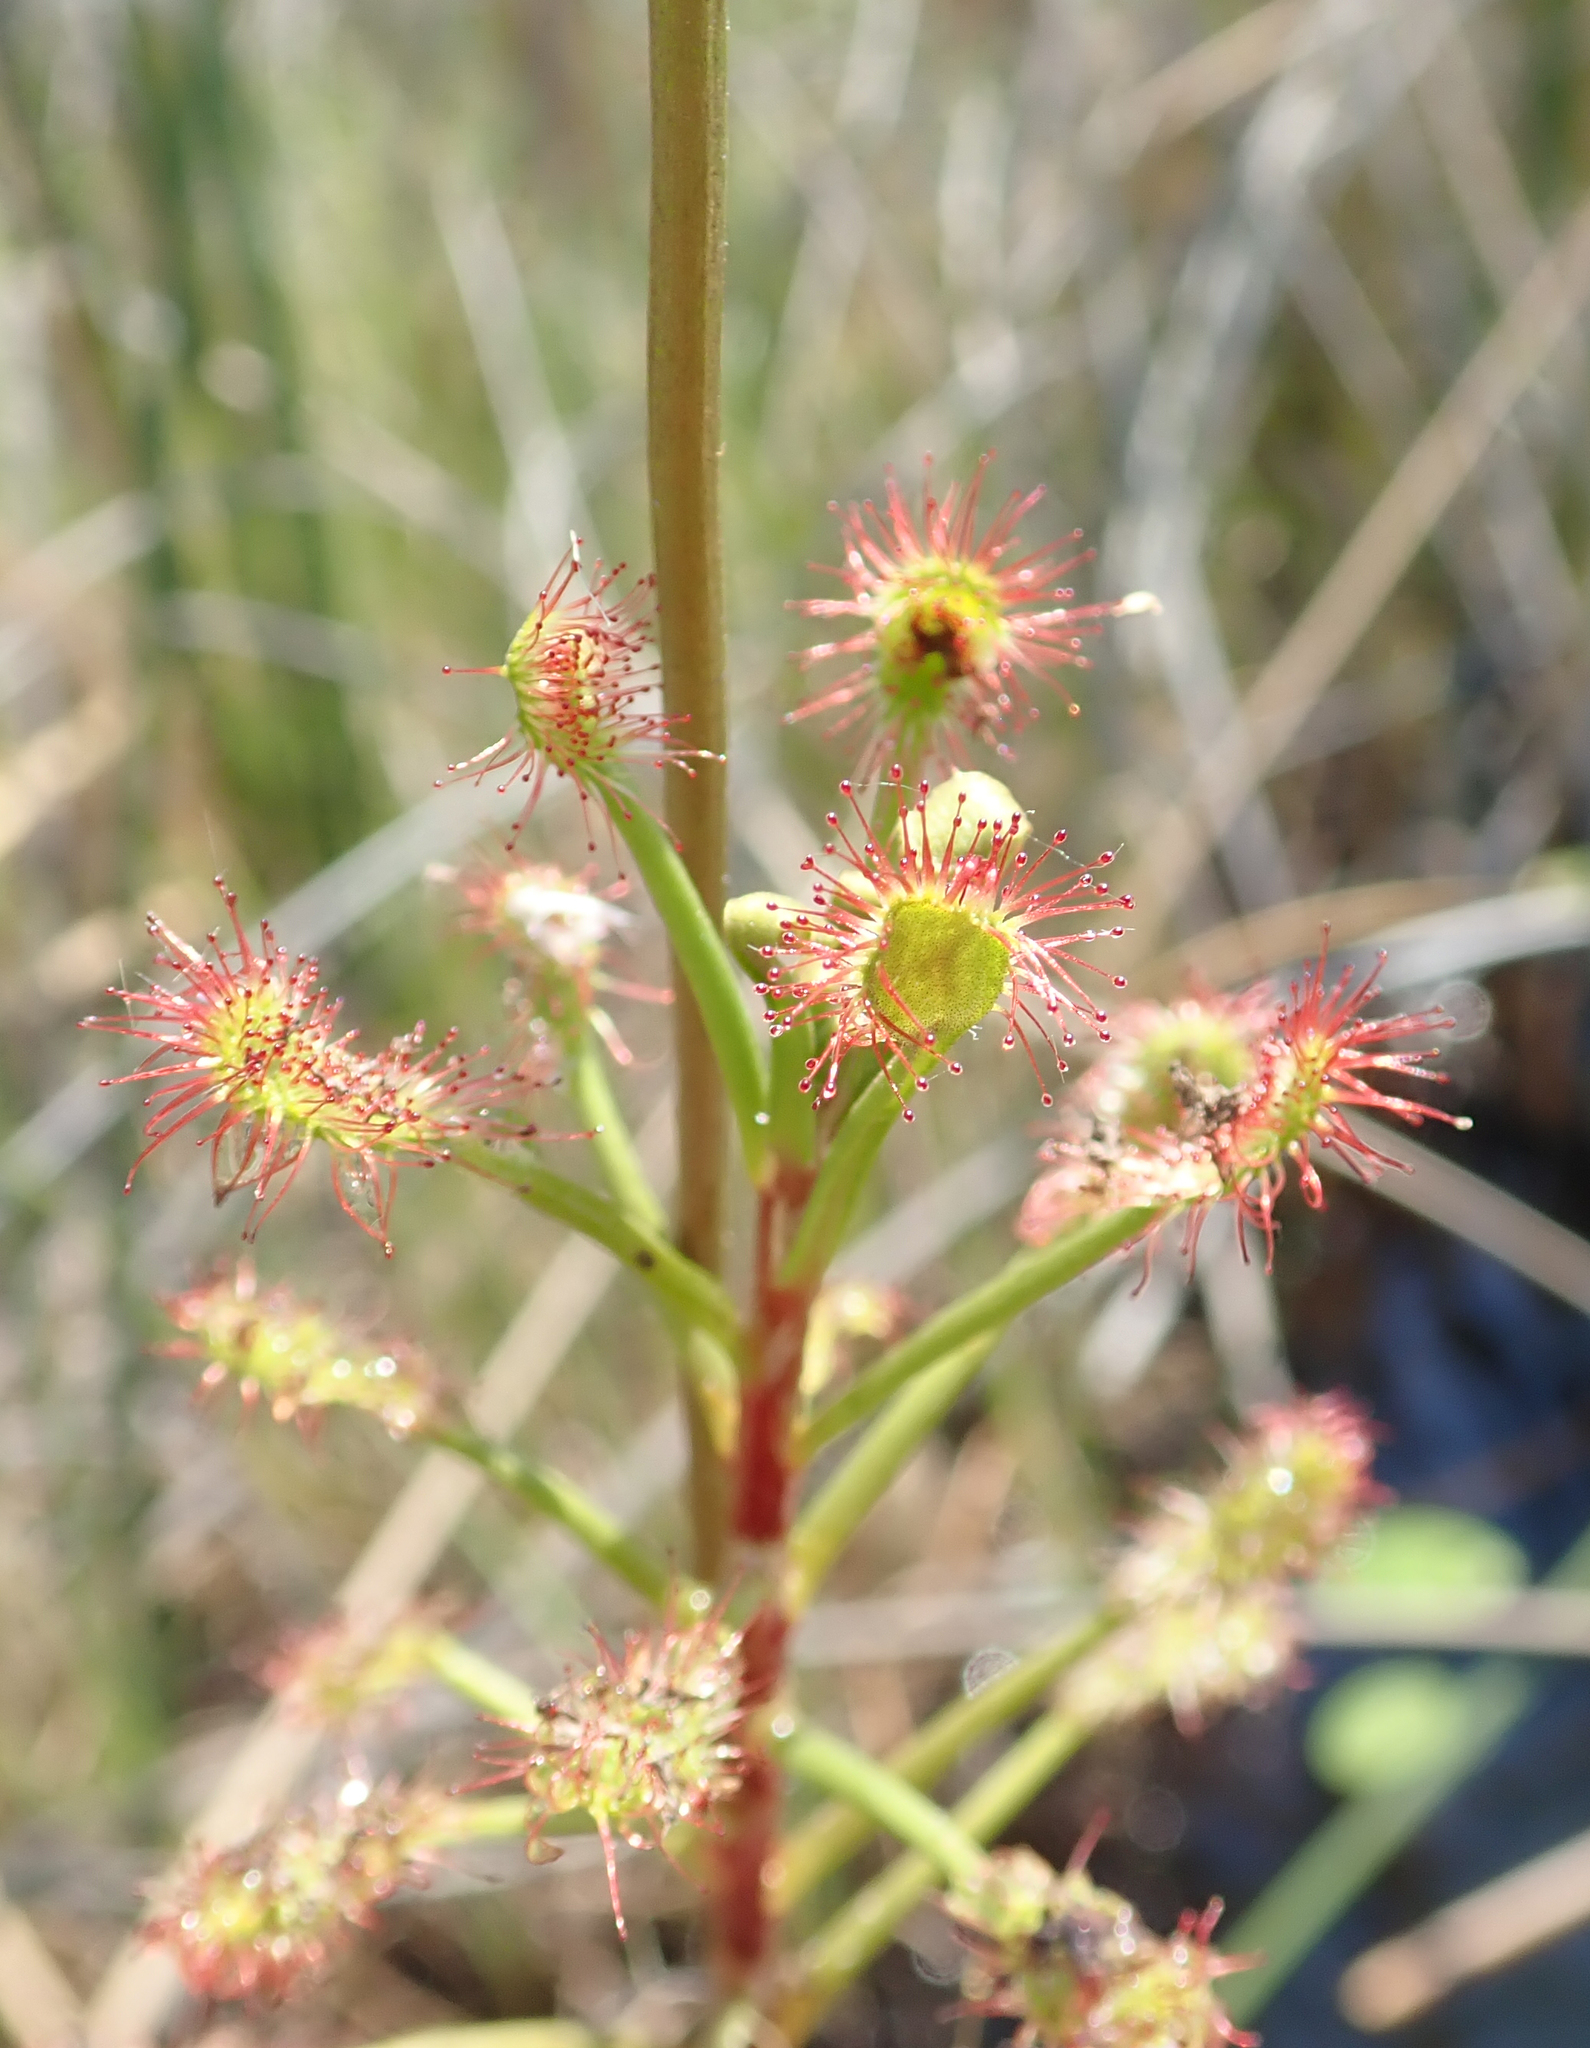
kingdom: Plantae
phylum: Tracheophyta
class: Magnoliopsida
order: Caryophyllales
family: Droseraceae
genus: Drosera
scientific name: Drosera madagascariensis
